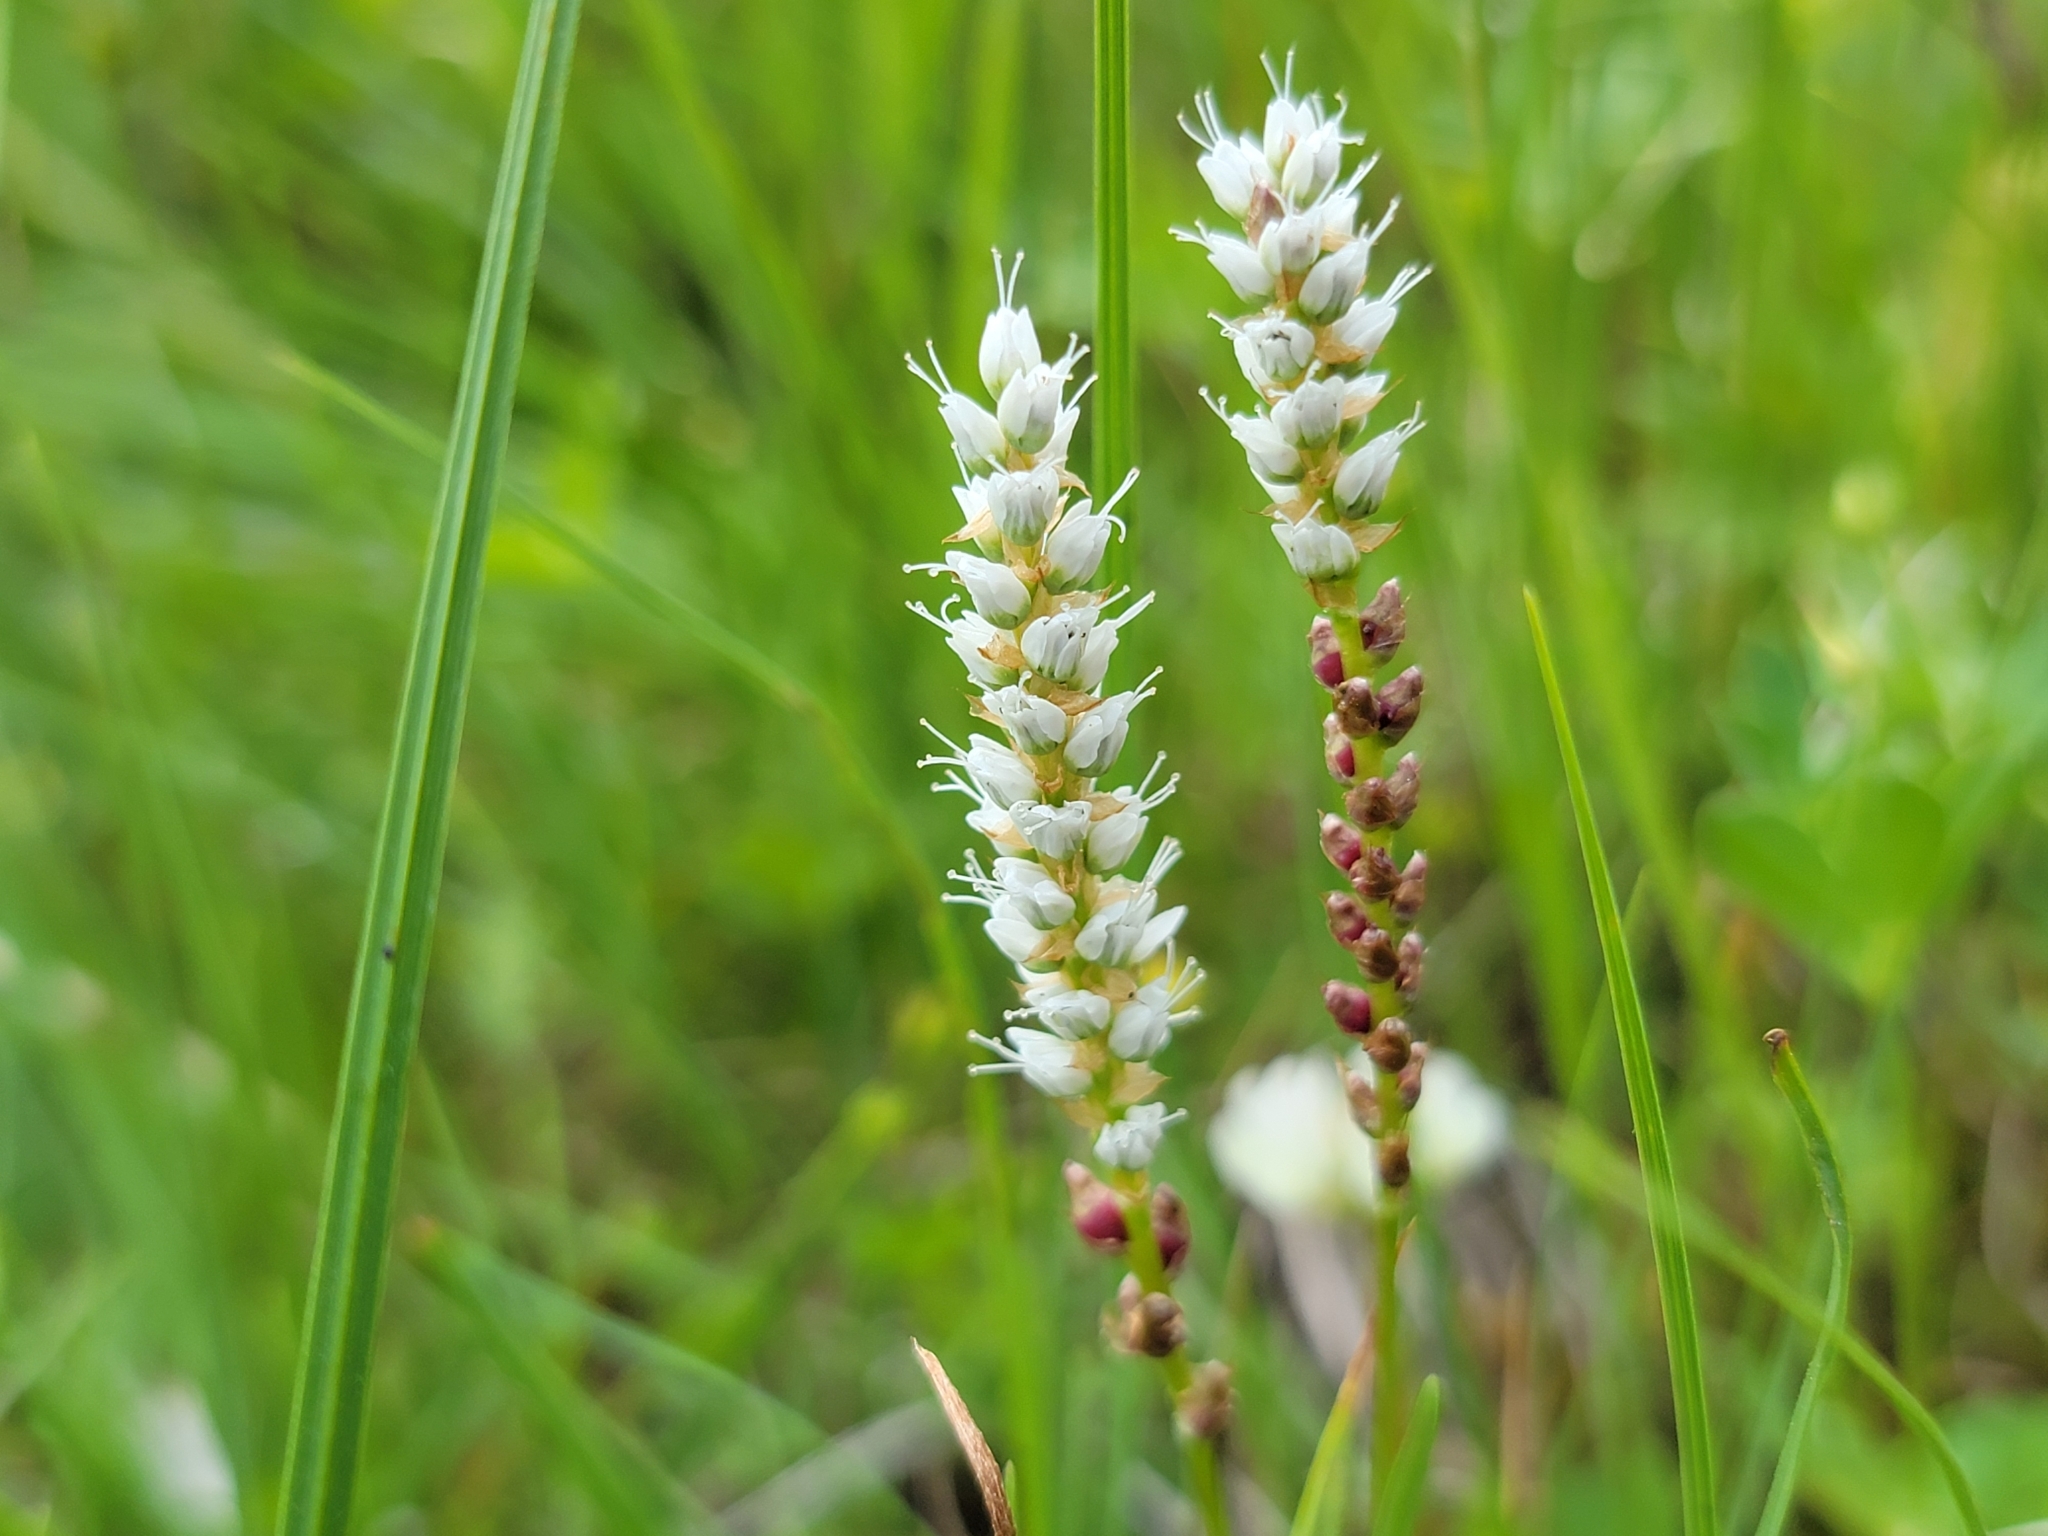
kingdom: Plantae
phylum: Tracheophyta
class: Magnoliopsida
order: Caryophyllales
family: Polygonaceae
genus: Bistorta
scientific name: Bistorta vivipara
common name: Alpine bistort
